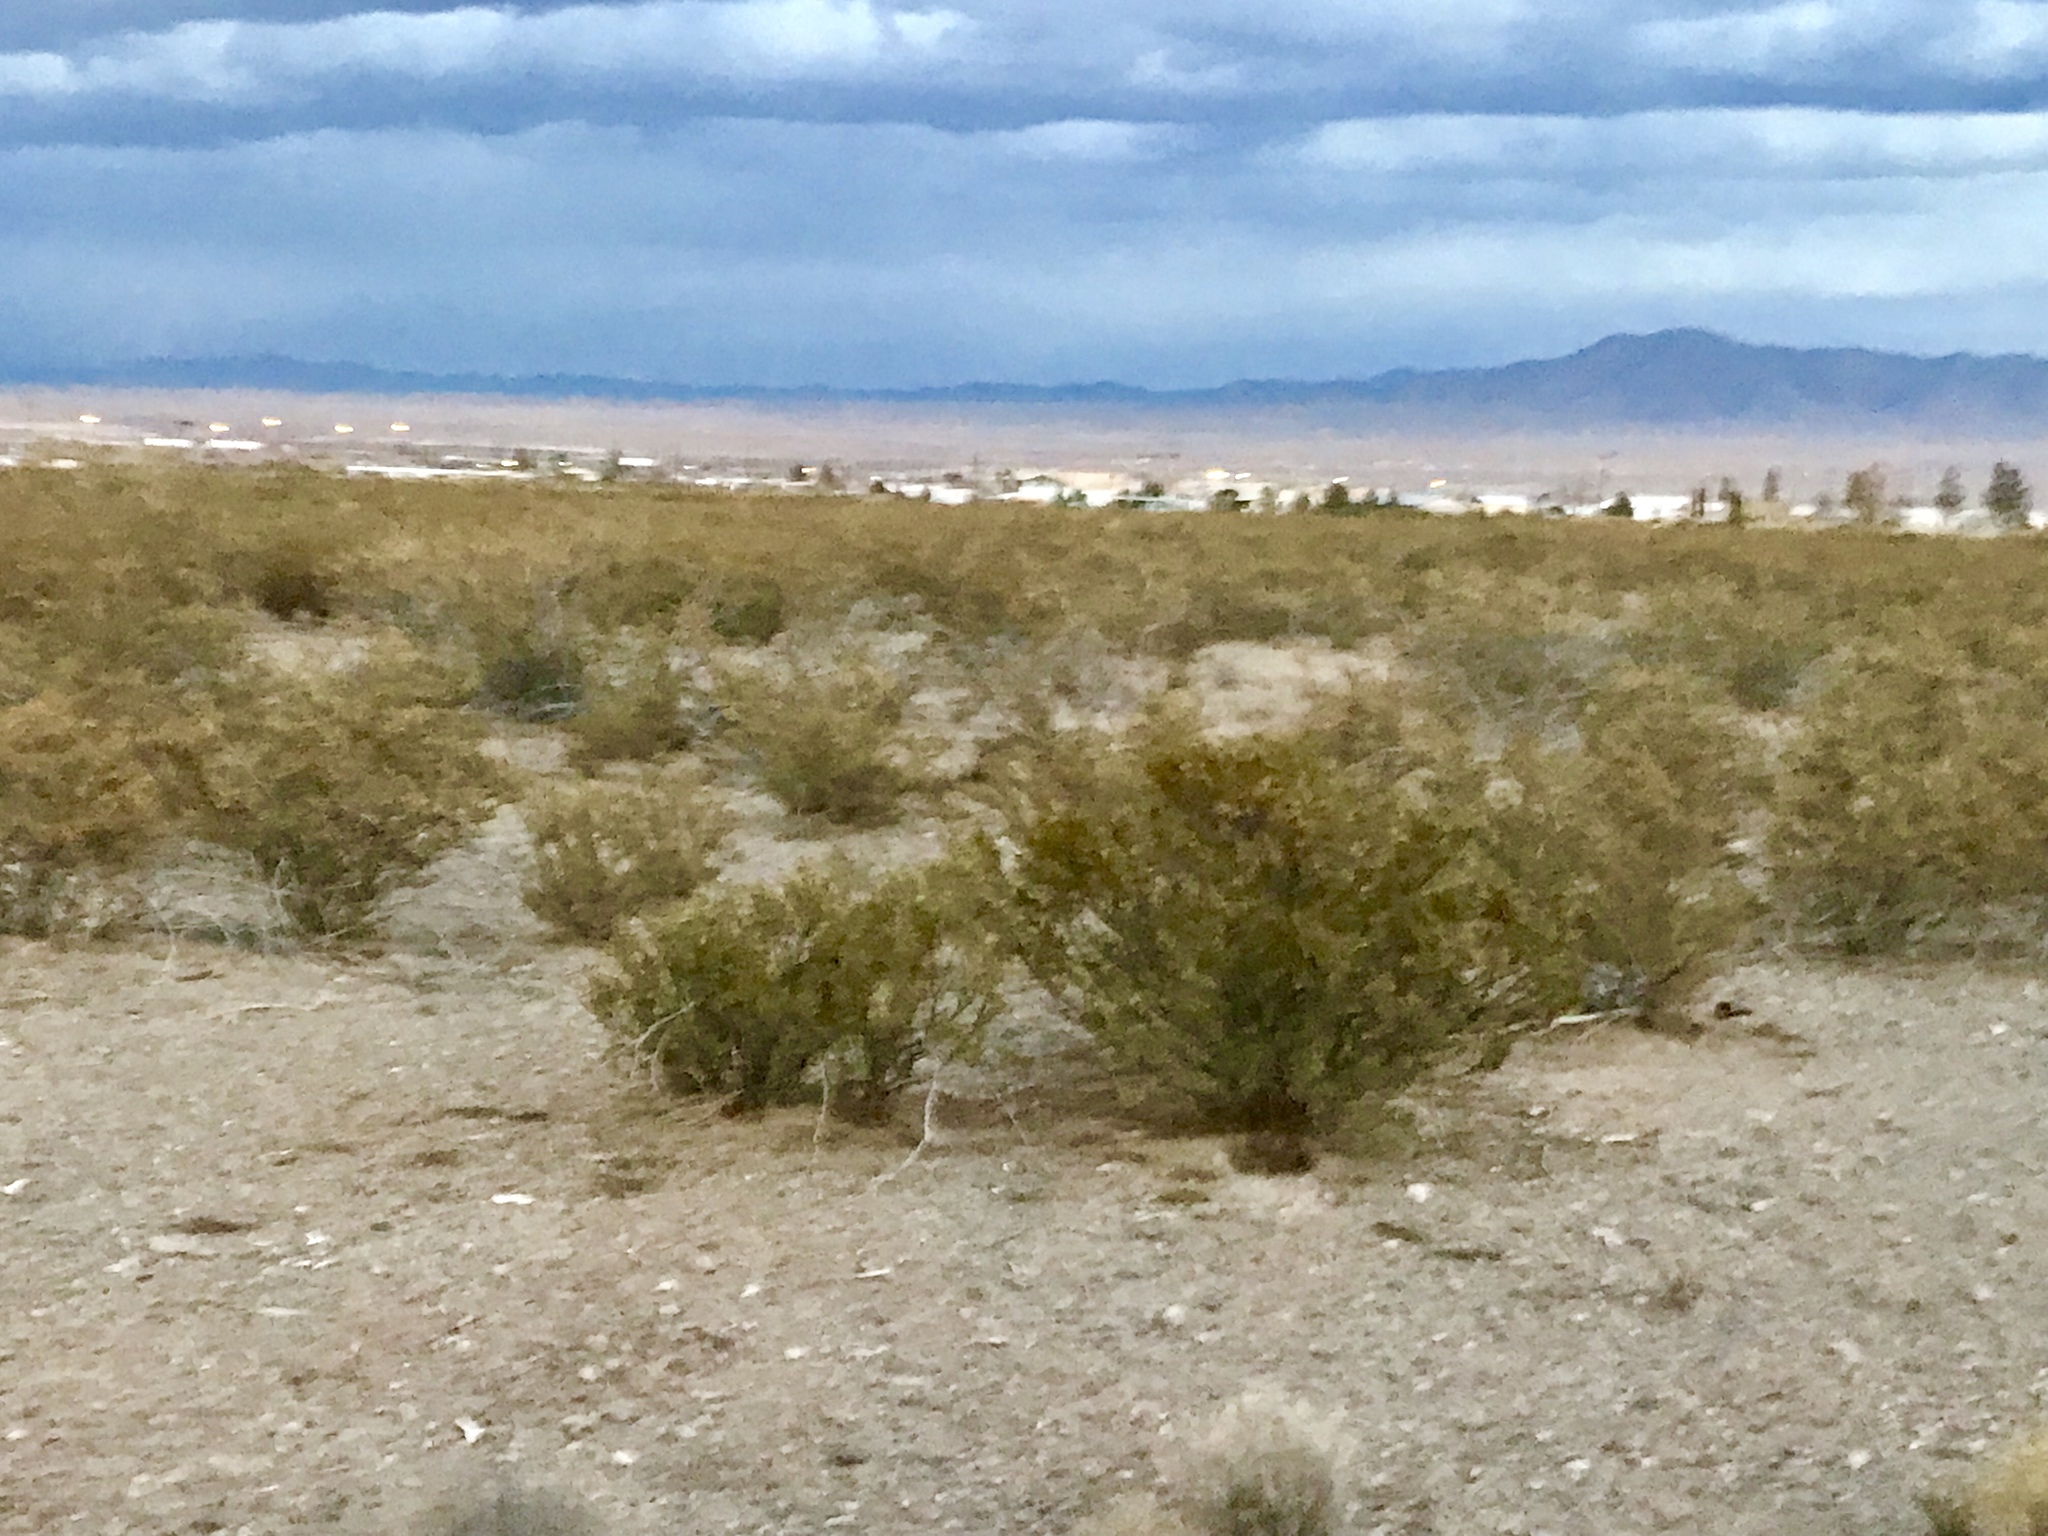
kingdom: Plantae
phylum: Tracheophyta
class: Magnoliopsida
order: Zygophyllales
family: Zygophyllaceae
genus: Larrea
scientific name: Larrea tridentata
